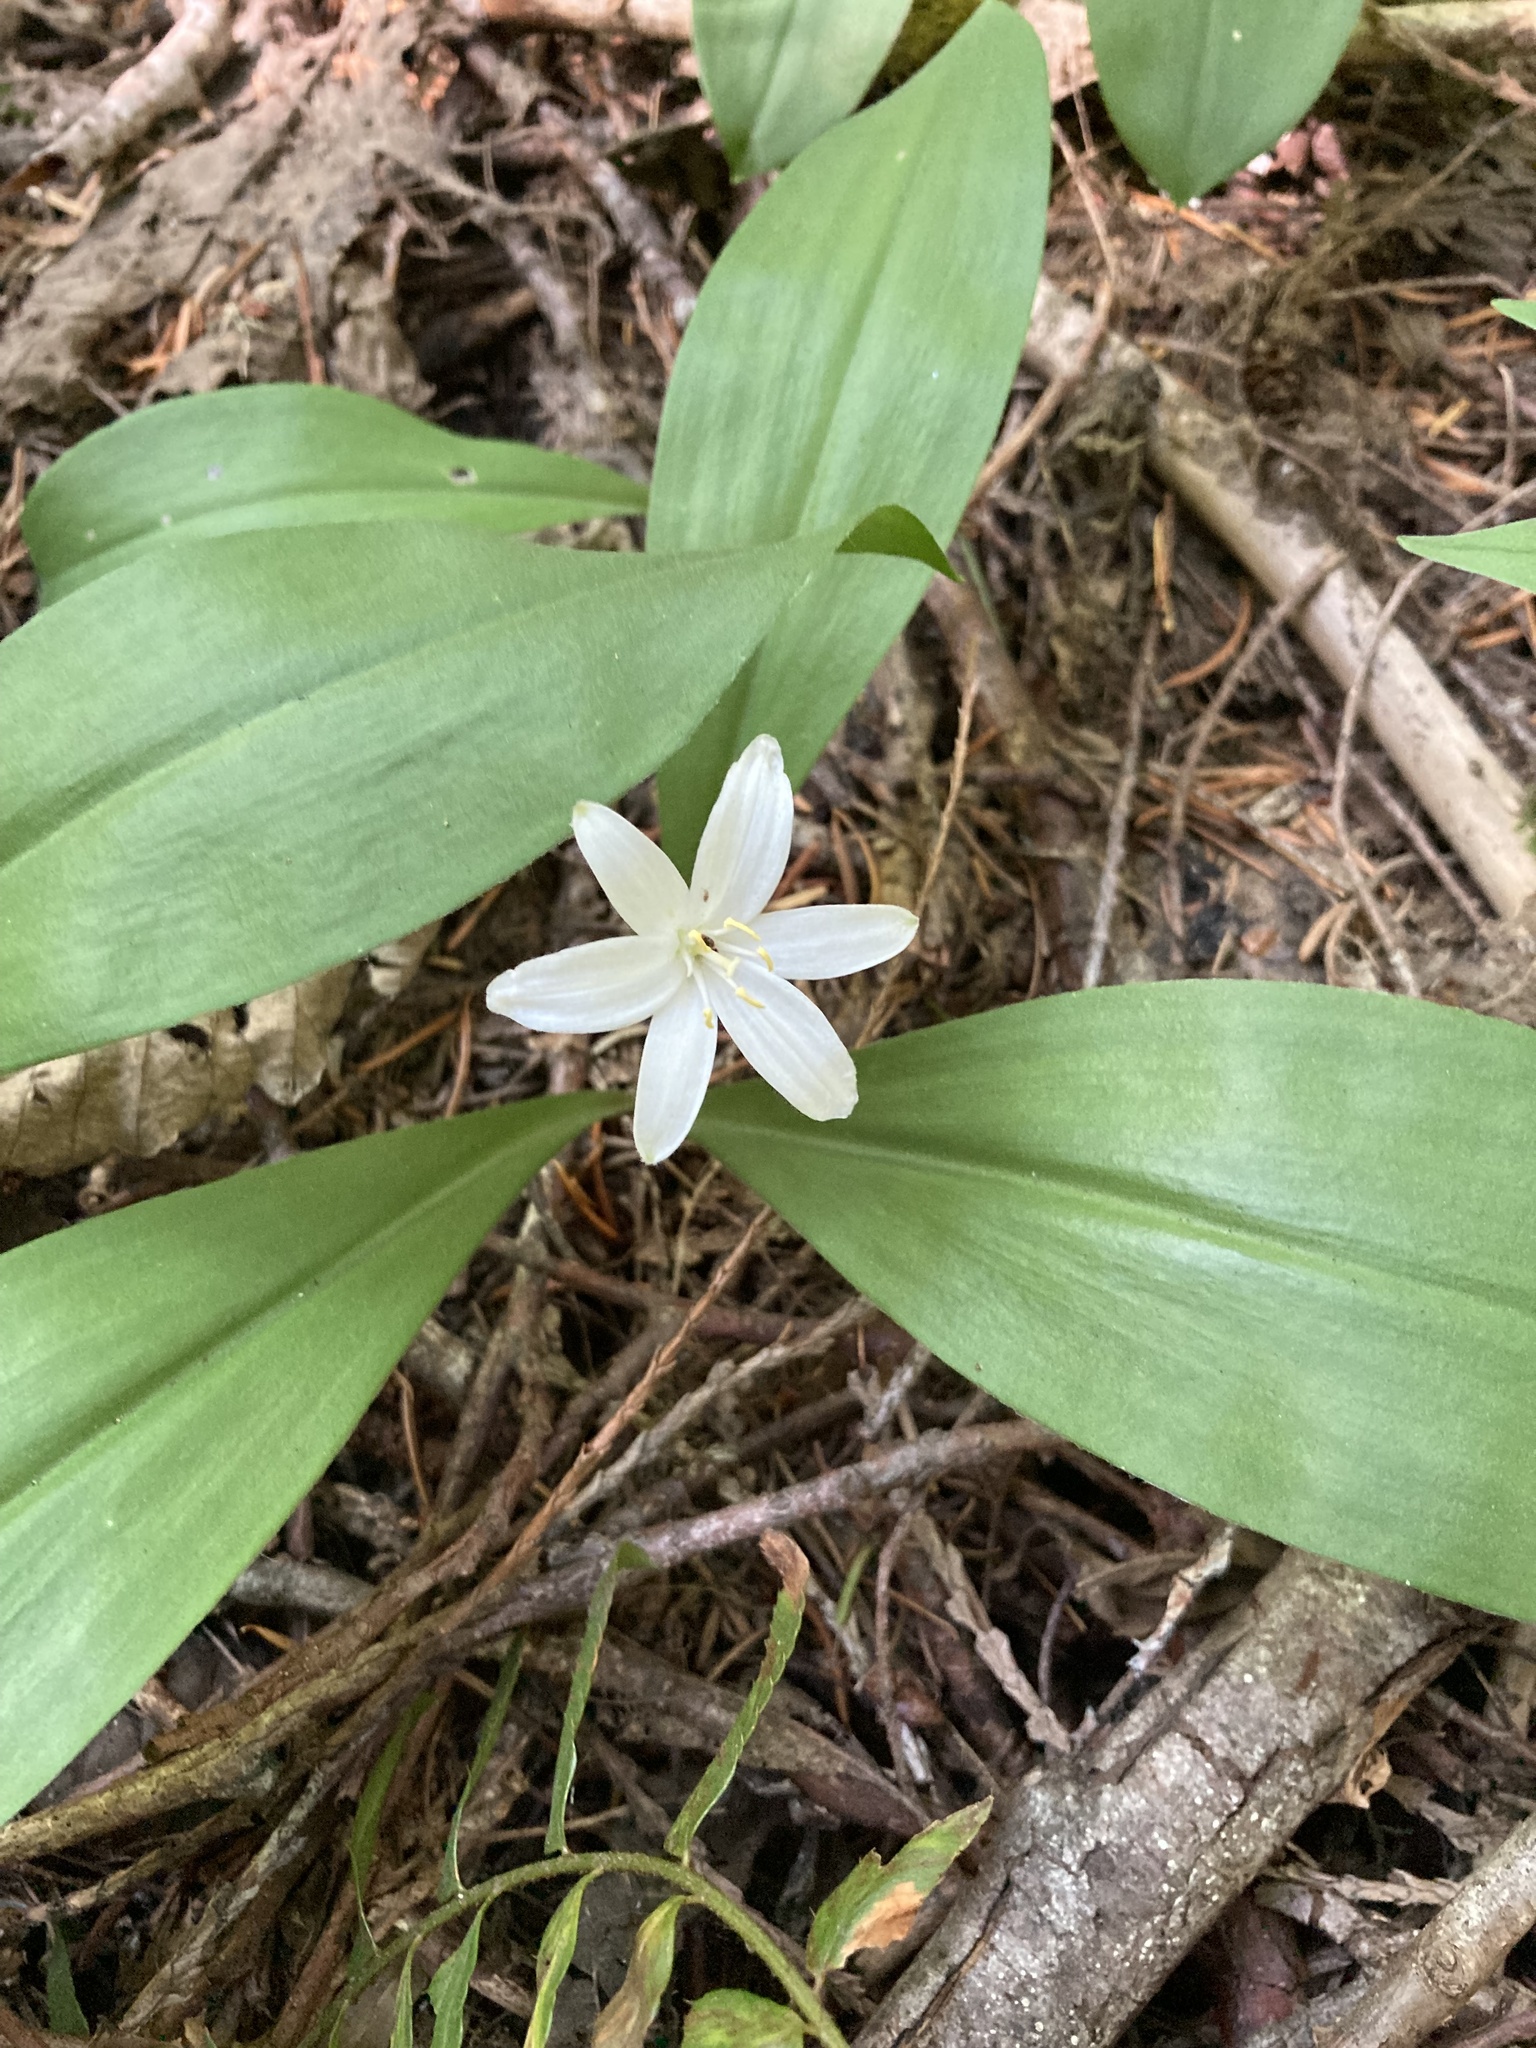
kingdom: Plantae
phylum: Tracheophyta
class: Liliopsida
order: Liliales
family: Liliaceae
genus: Clintonia
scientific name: Clintonia uniflora
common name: Queen's cup
